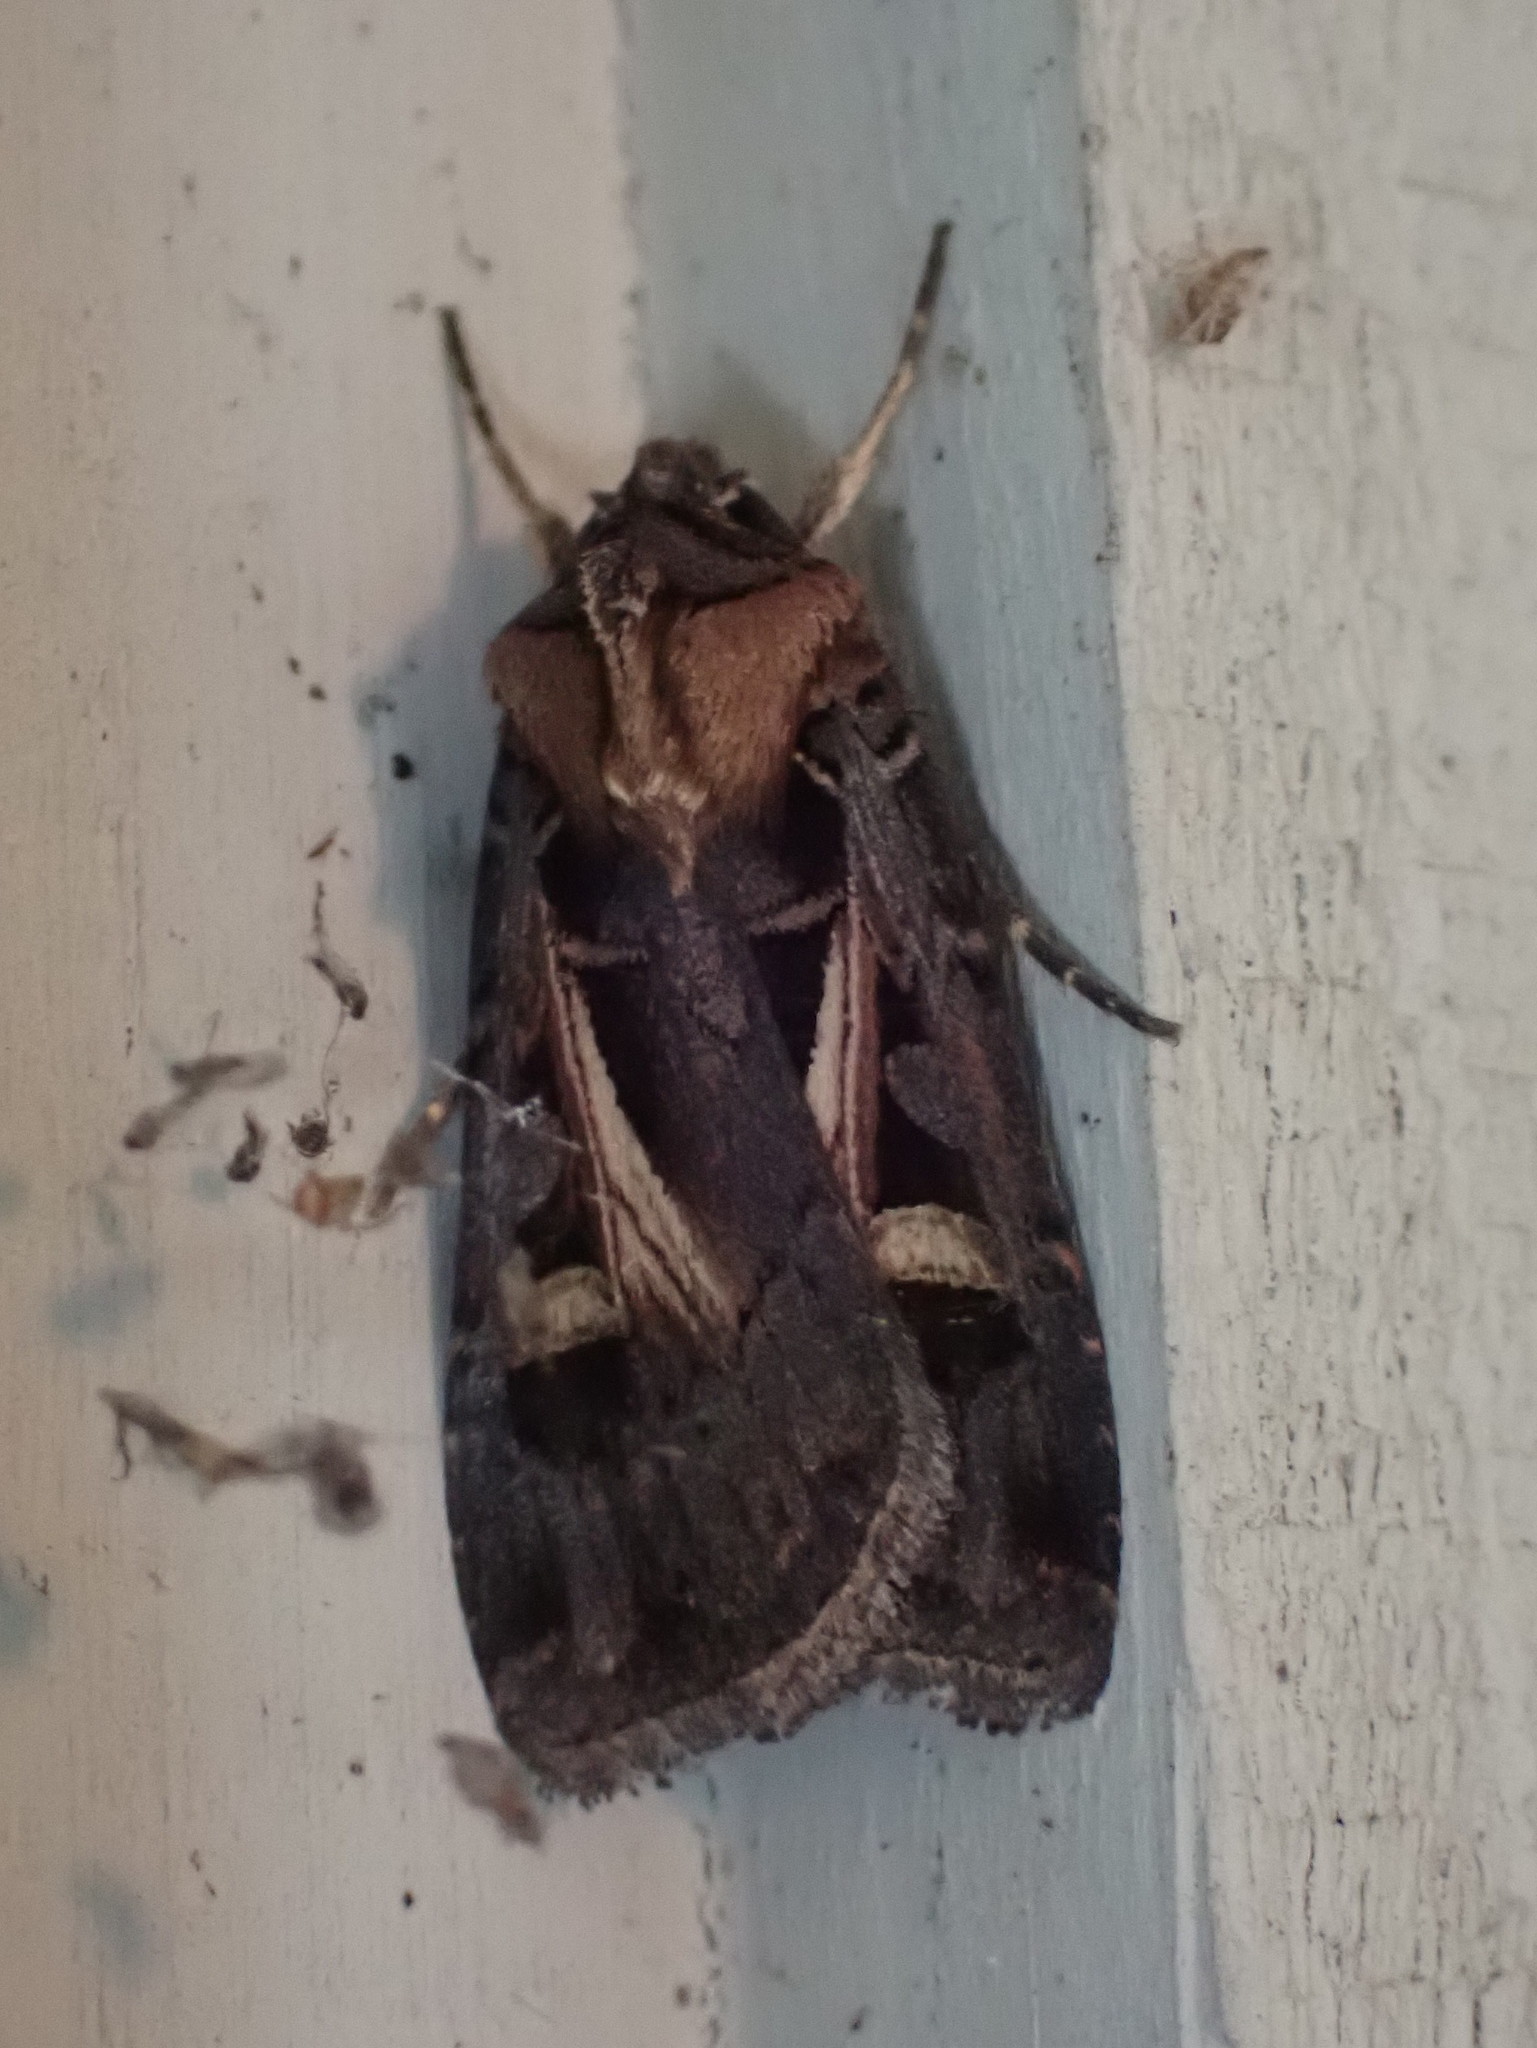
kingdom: Animalia
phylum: Arthropoda
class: Insecta
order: Lepidoptera
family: Noctuidae
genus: Feltia
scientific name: Feltia herilis
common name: Master's dart
